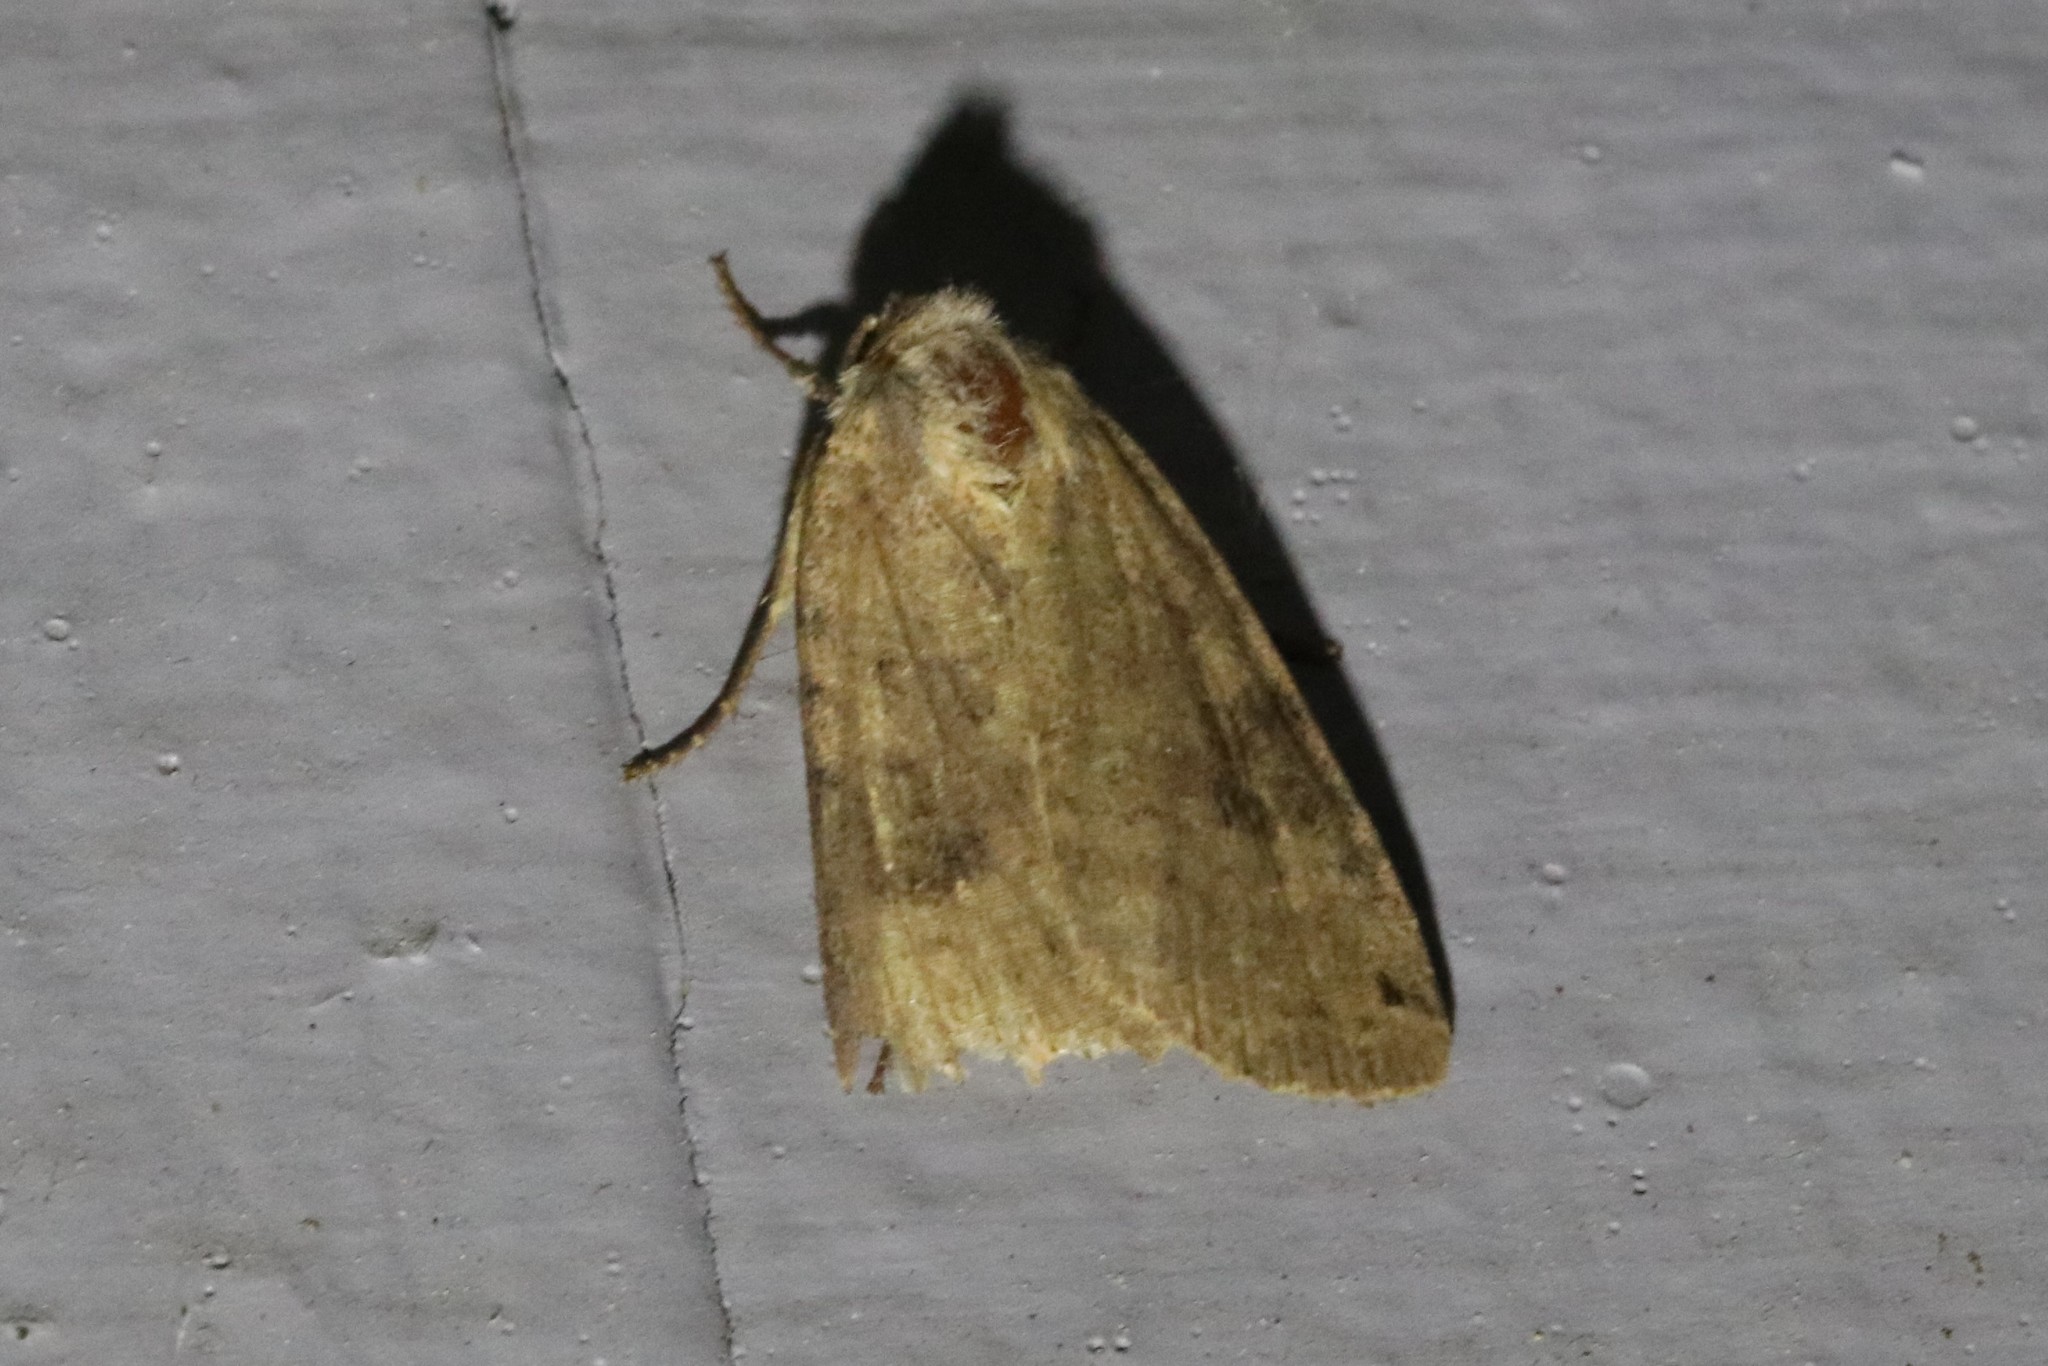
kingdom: Animalia
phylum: Arthropoda
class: Insecta
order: Lepidoptera
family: Noctuidae
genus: Noctua
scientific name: Noctua pronuba
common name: Large yellow underwing
